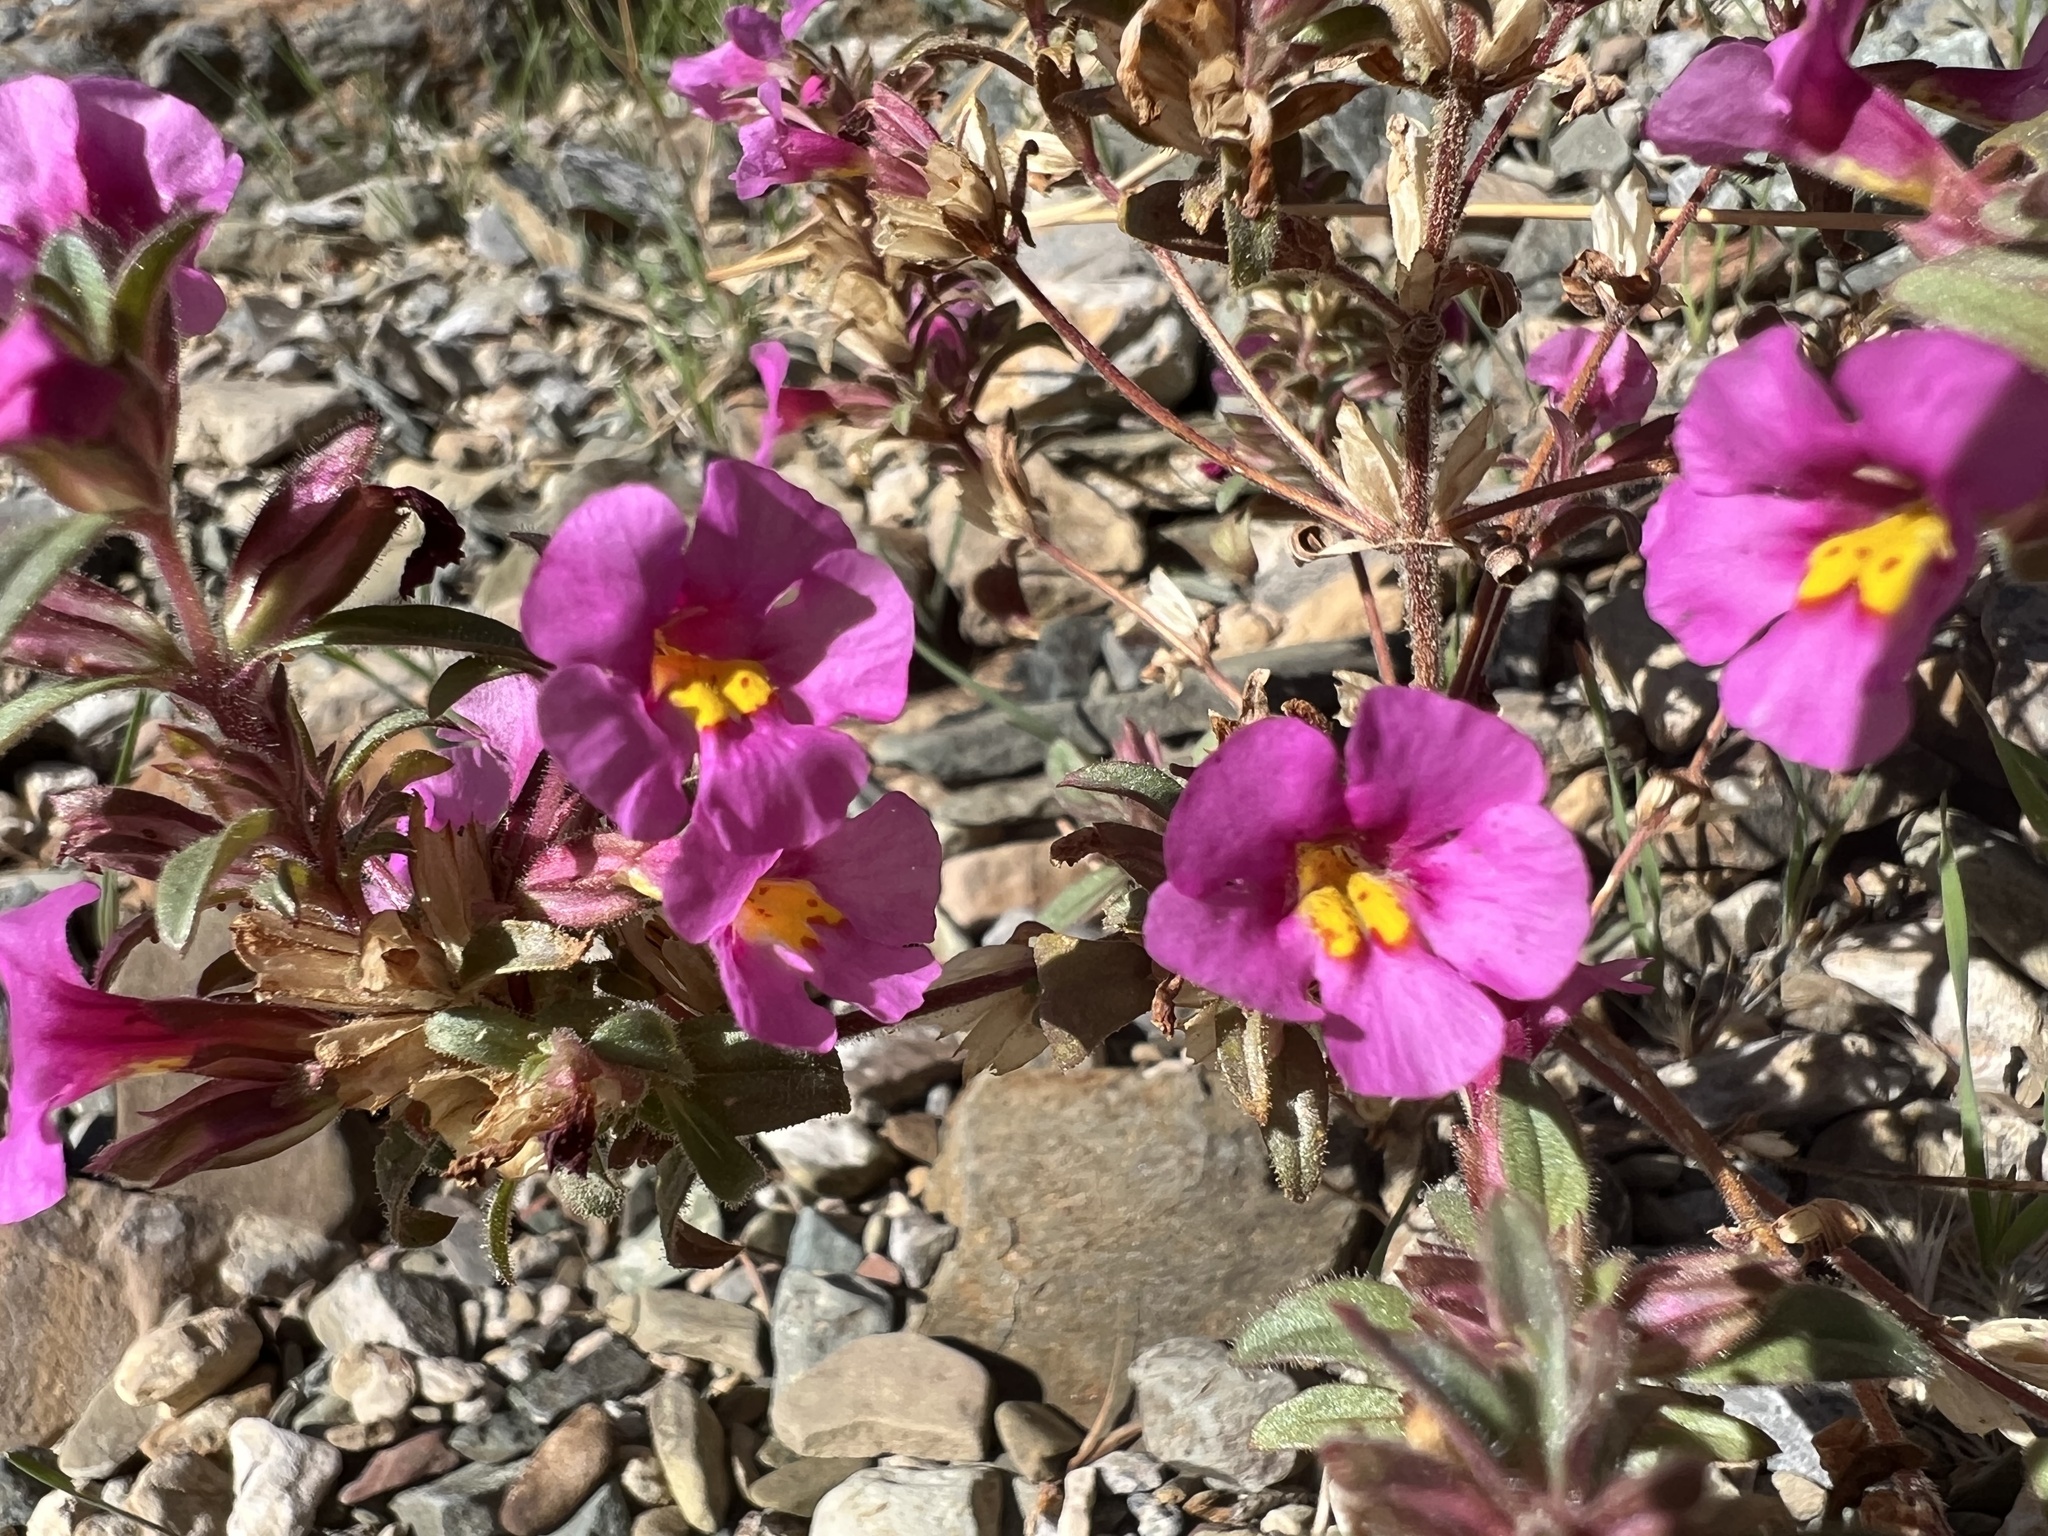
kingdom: Plantae
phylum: Tracheophyta
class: Magnoliopsida
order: Lamiales
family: Phrymaceae
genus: Diplacus
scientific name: Diplacus parryi
